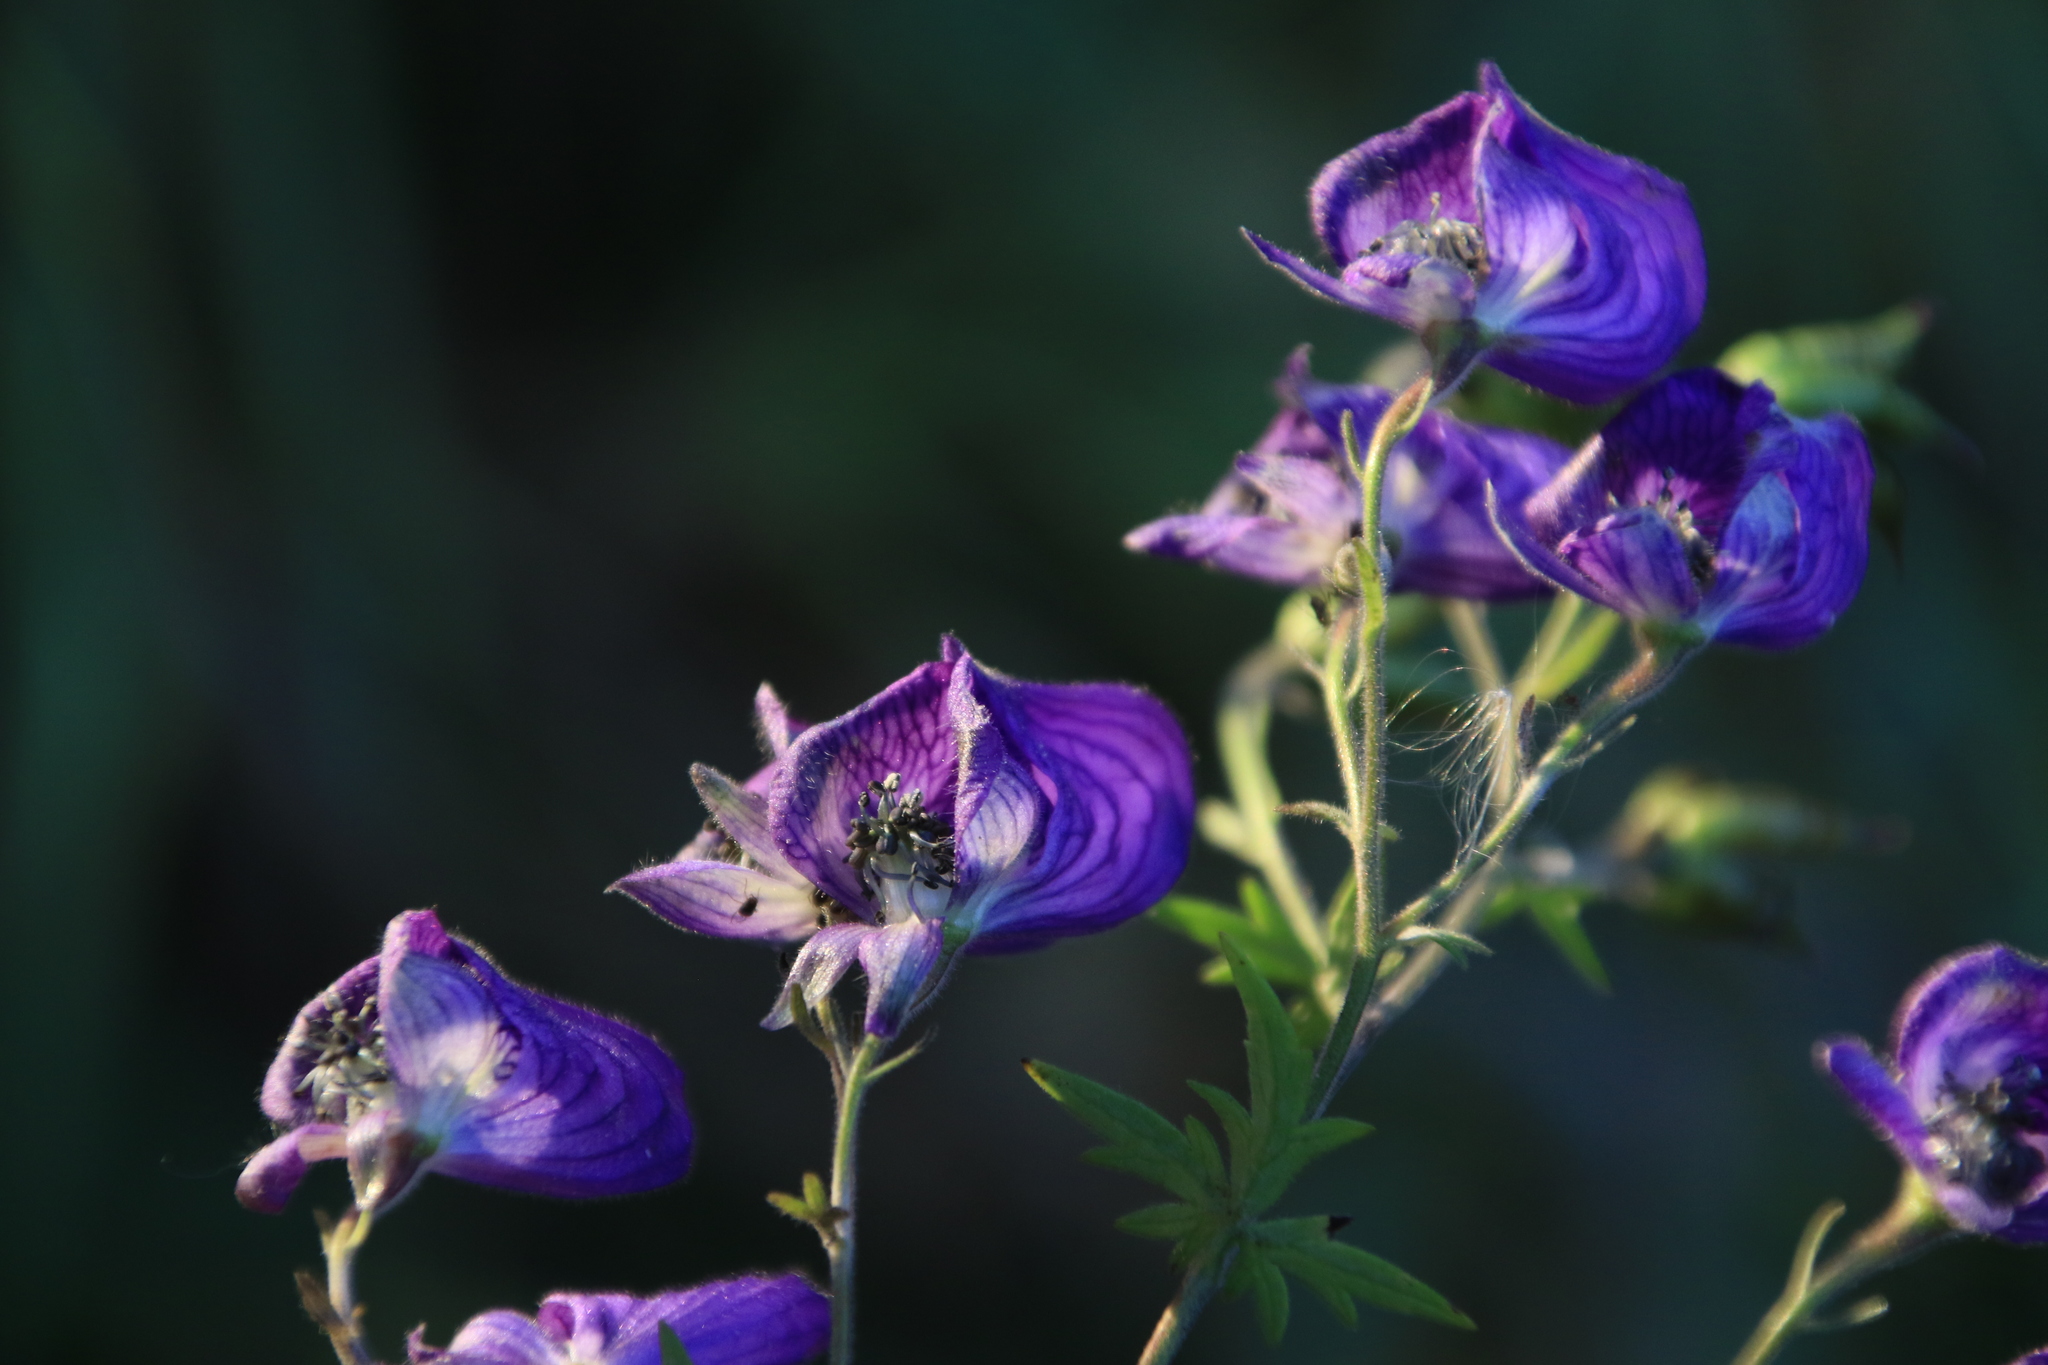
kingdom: Plantae
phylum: Tracheophyta
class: Magnoliopsida
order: Ranunculales
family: Ranunculaceae
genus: Aconitum
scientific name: Aconitum volubile
